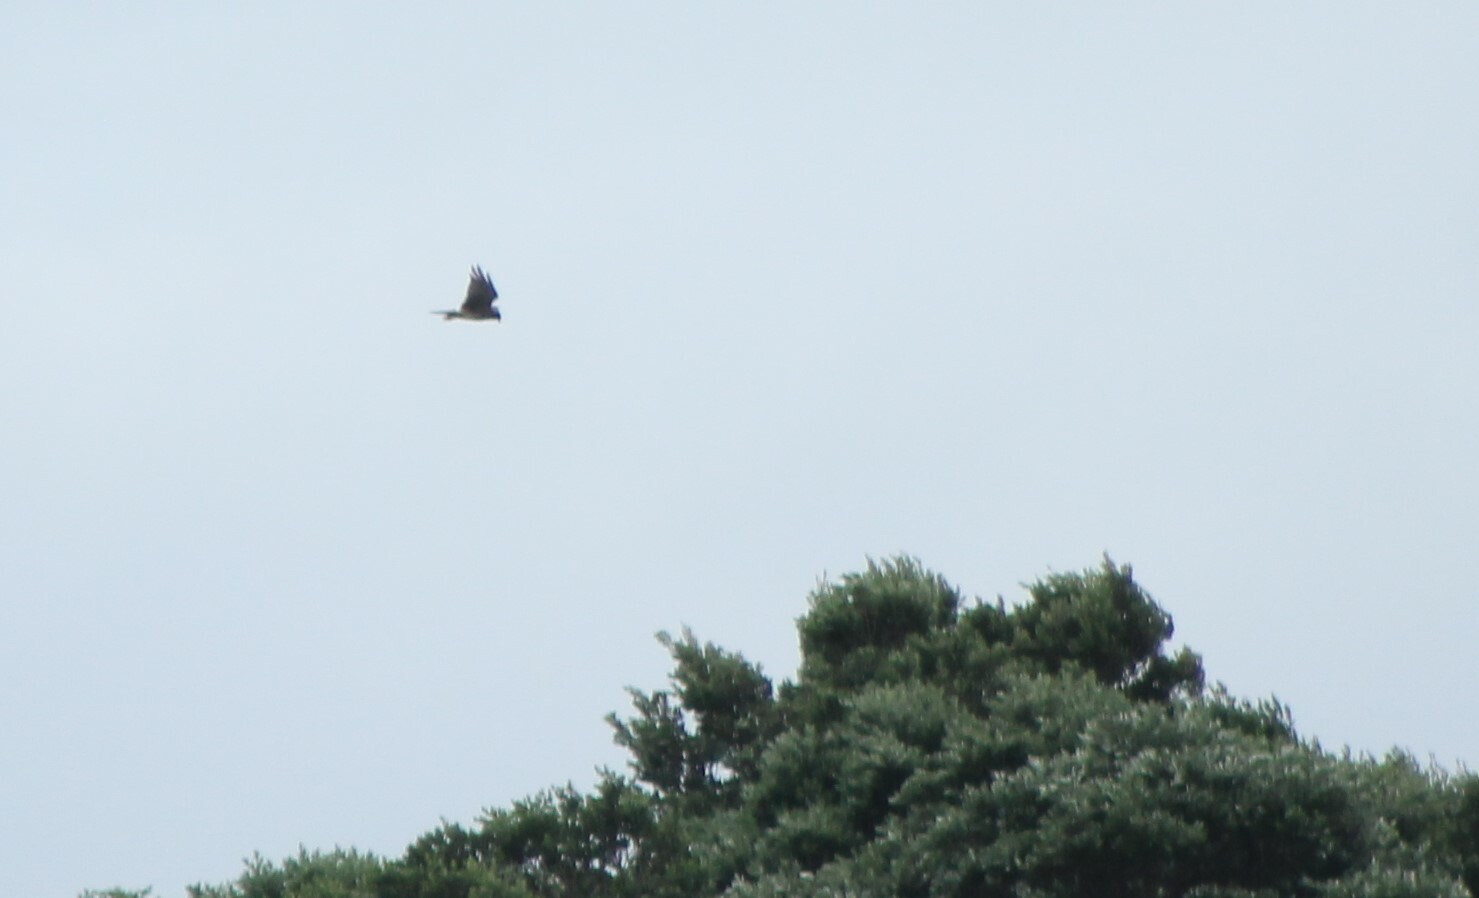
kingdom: Animalia
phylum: Chordata
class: Aves
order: Accipitriformes
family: Accipitridae
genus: Circus
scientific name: Circus approximans
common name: Swamp harrier
